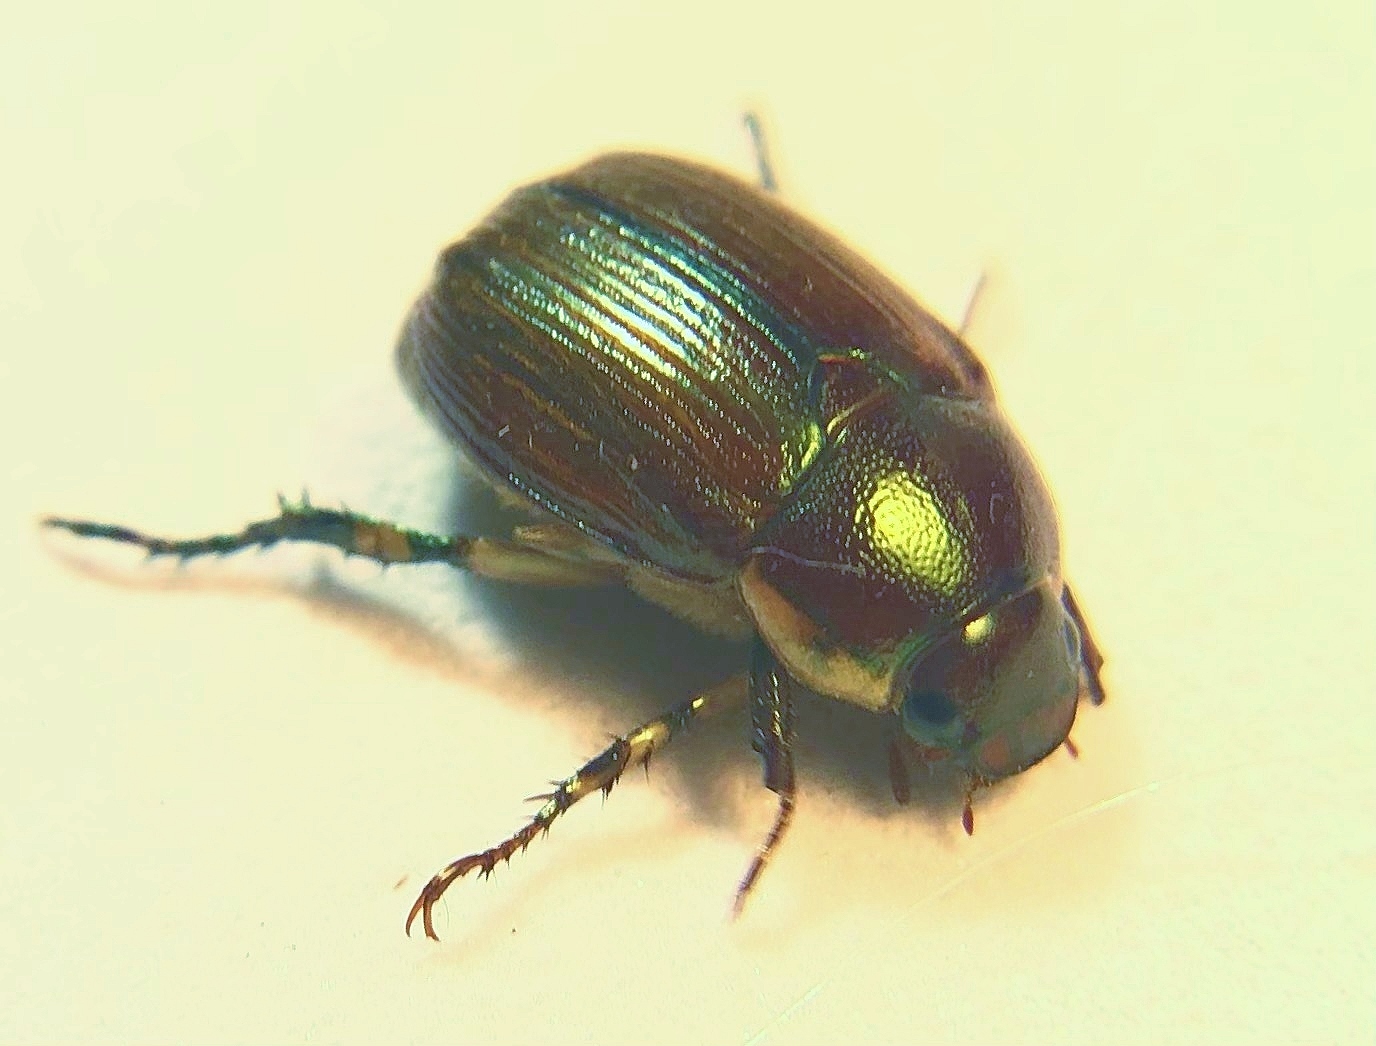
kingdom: Animalia
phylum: Arthropoda
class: Insecta
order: Coleoptera
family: Scarabaeidae
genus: Callistethus
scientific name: Callistethus marginatus
